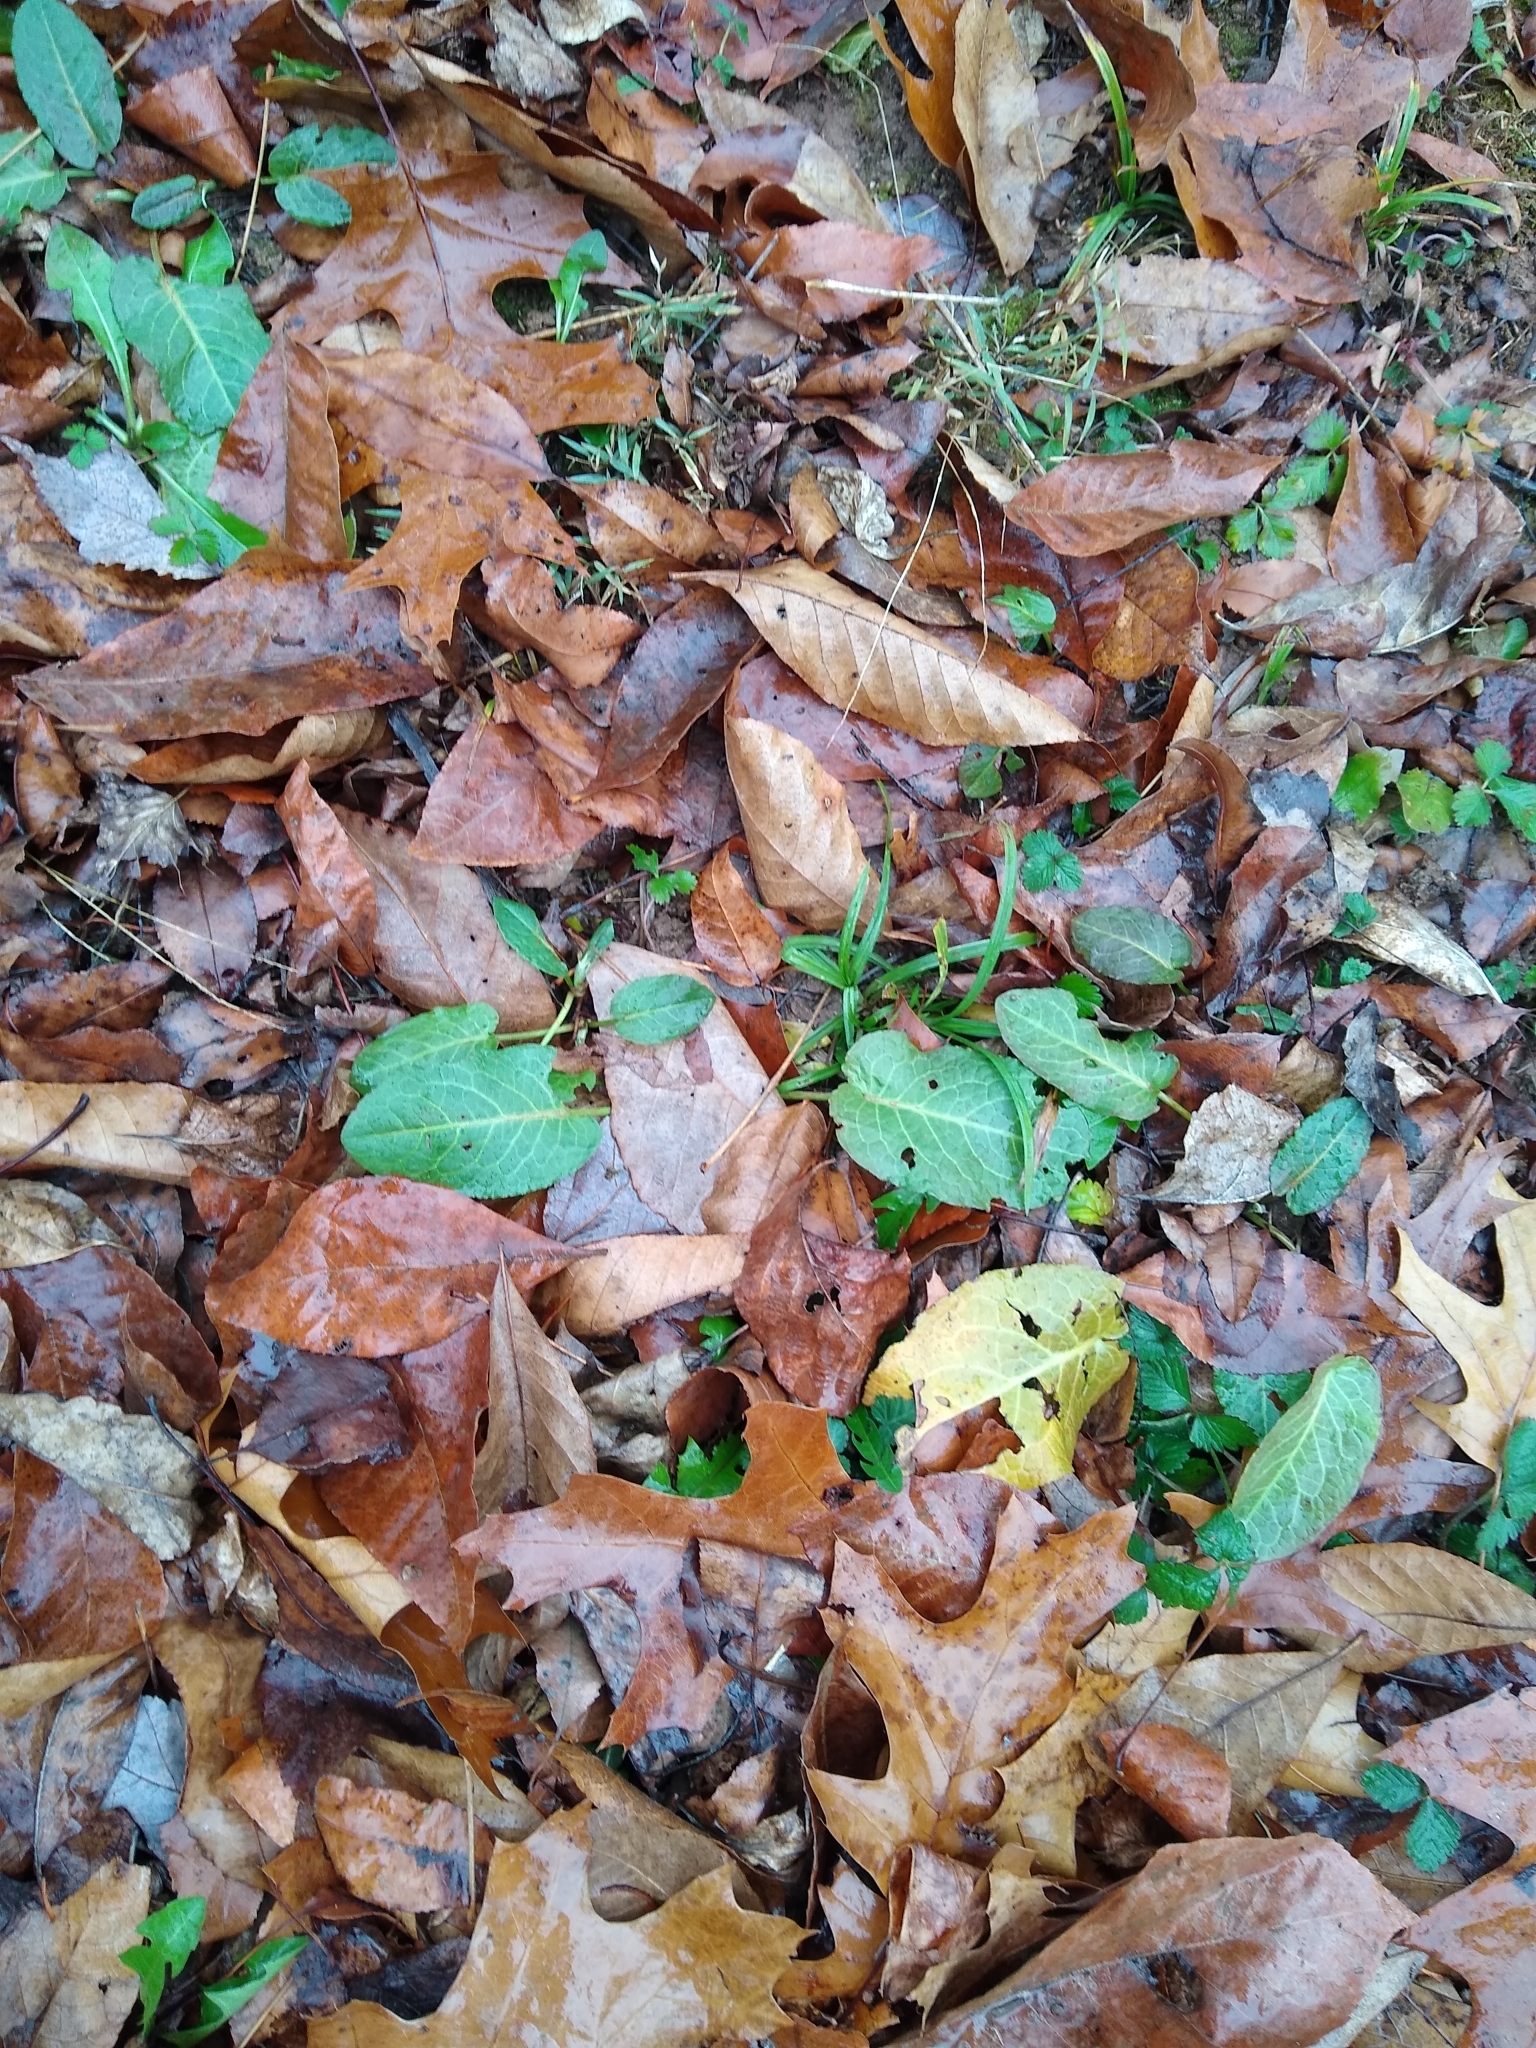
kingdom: Plantae
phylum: Tracheophyta
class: Magnoliopsida
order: Caryophyllales
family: Polygonaceae
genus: Rumex
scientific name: Rumex obtusifolius
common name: Bitter dock
